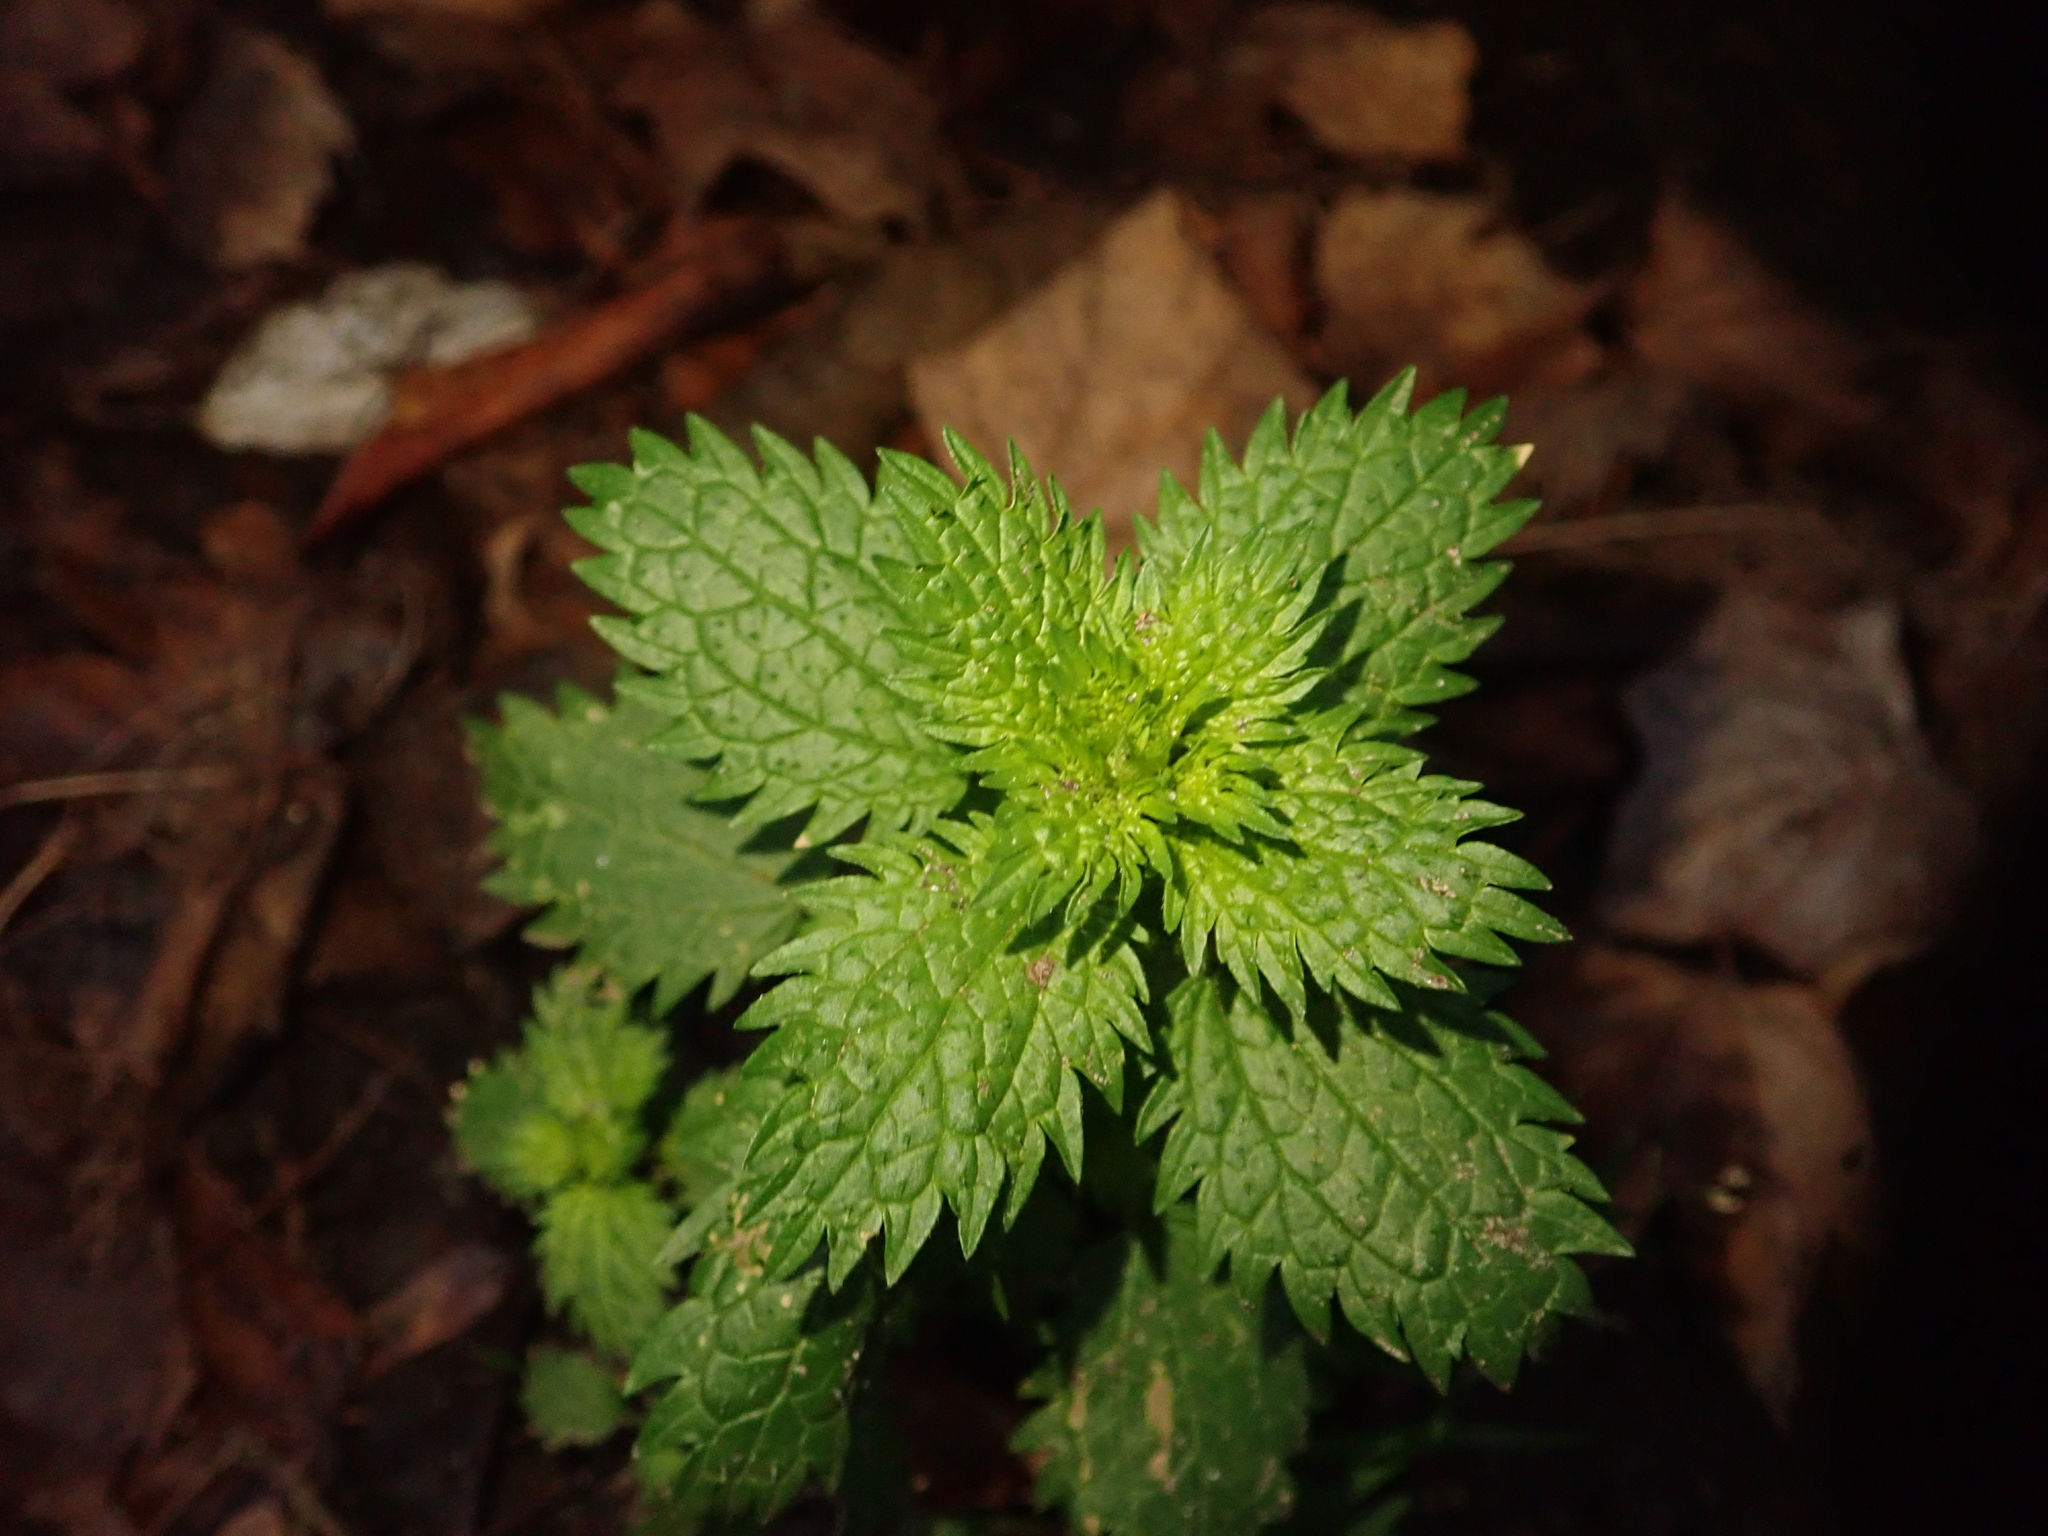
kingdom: Plantae
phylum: Tracheophyta
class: Magnoliopsida
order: Rosales
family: Urticaceae
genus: Urtica
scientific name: Urtica urens
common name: Dwarf nettle
